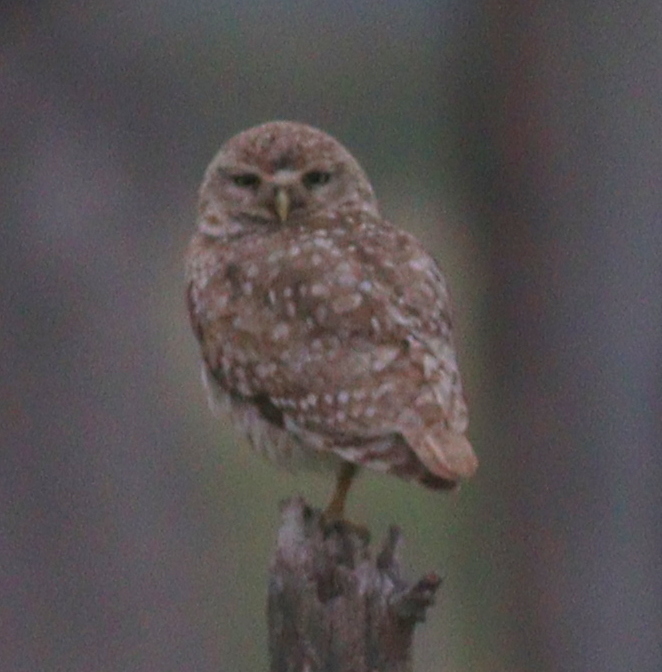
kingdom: Animalia
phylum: Chordata
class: Aves
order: Strigiformes
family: Strigidae
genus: Athene
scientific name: Athene cunicularia
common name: Burrowing owl
